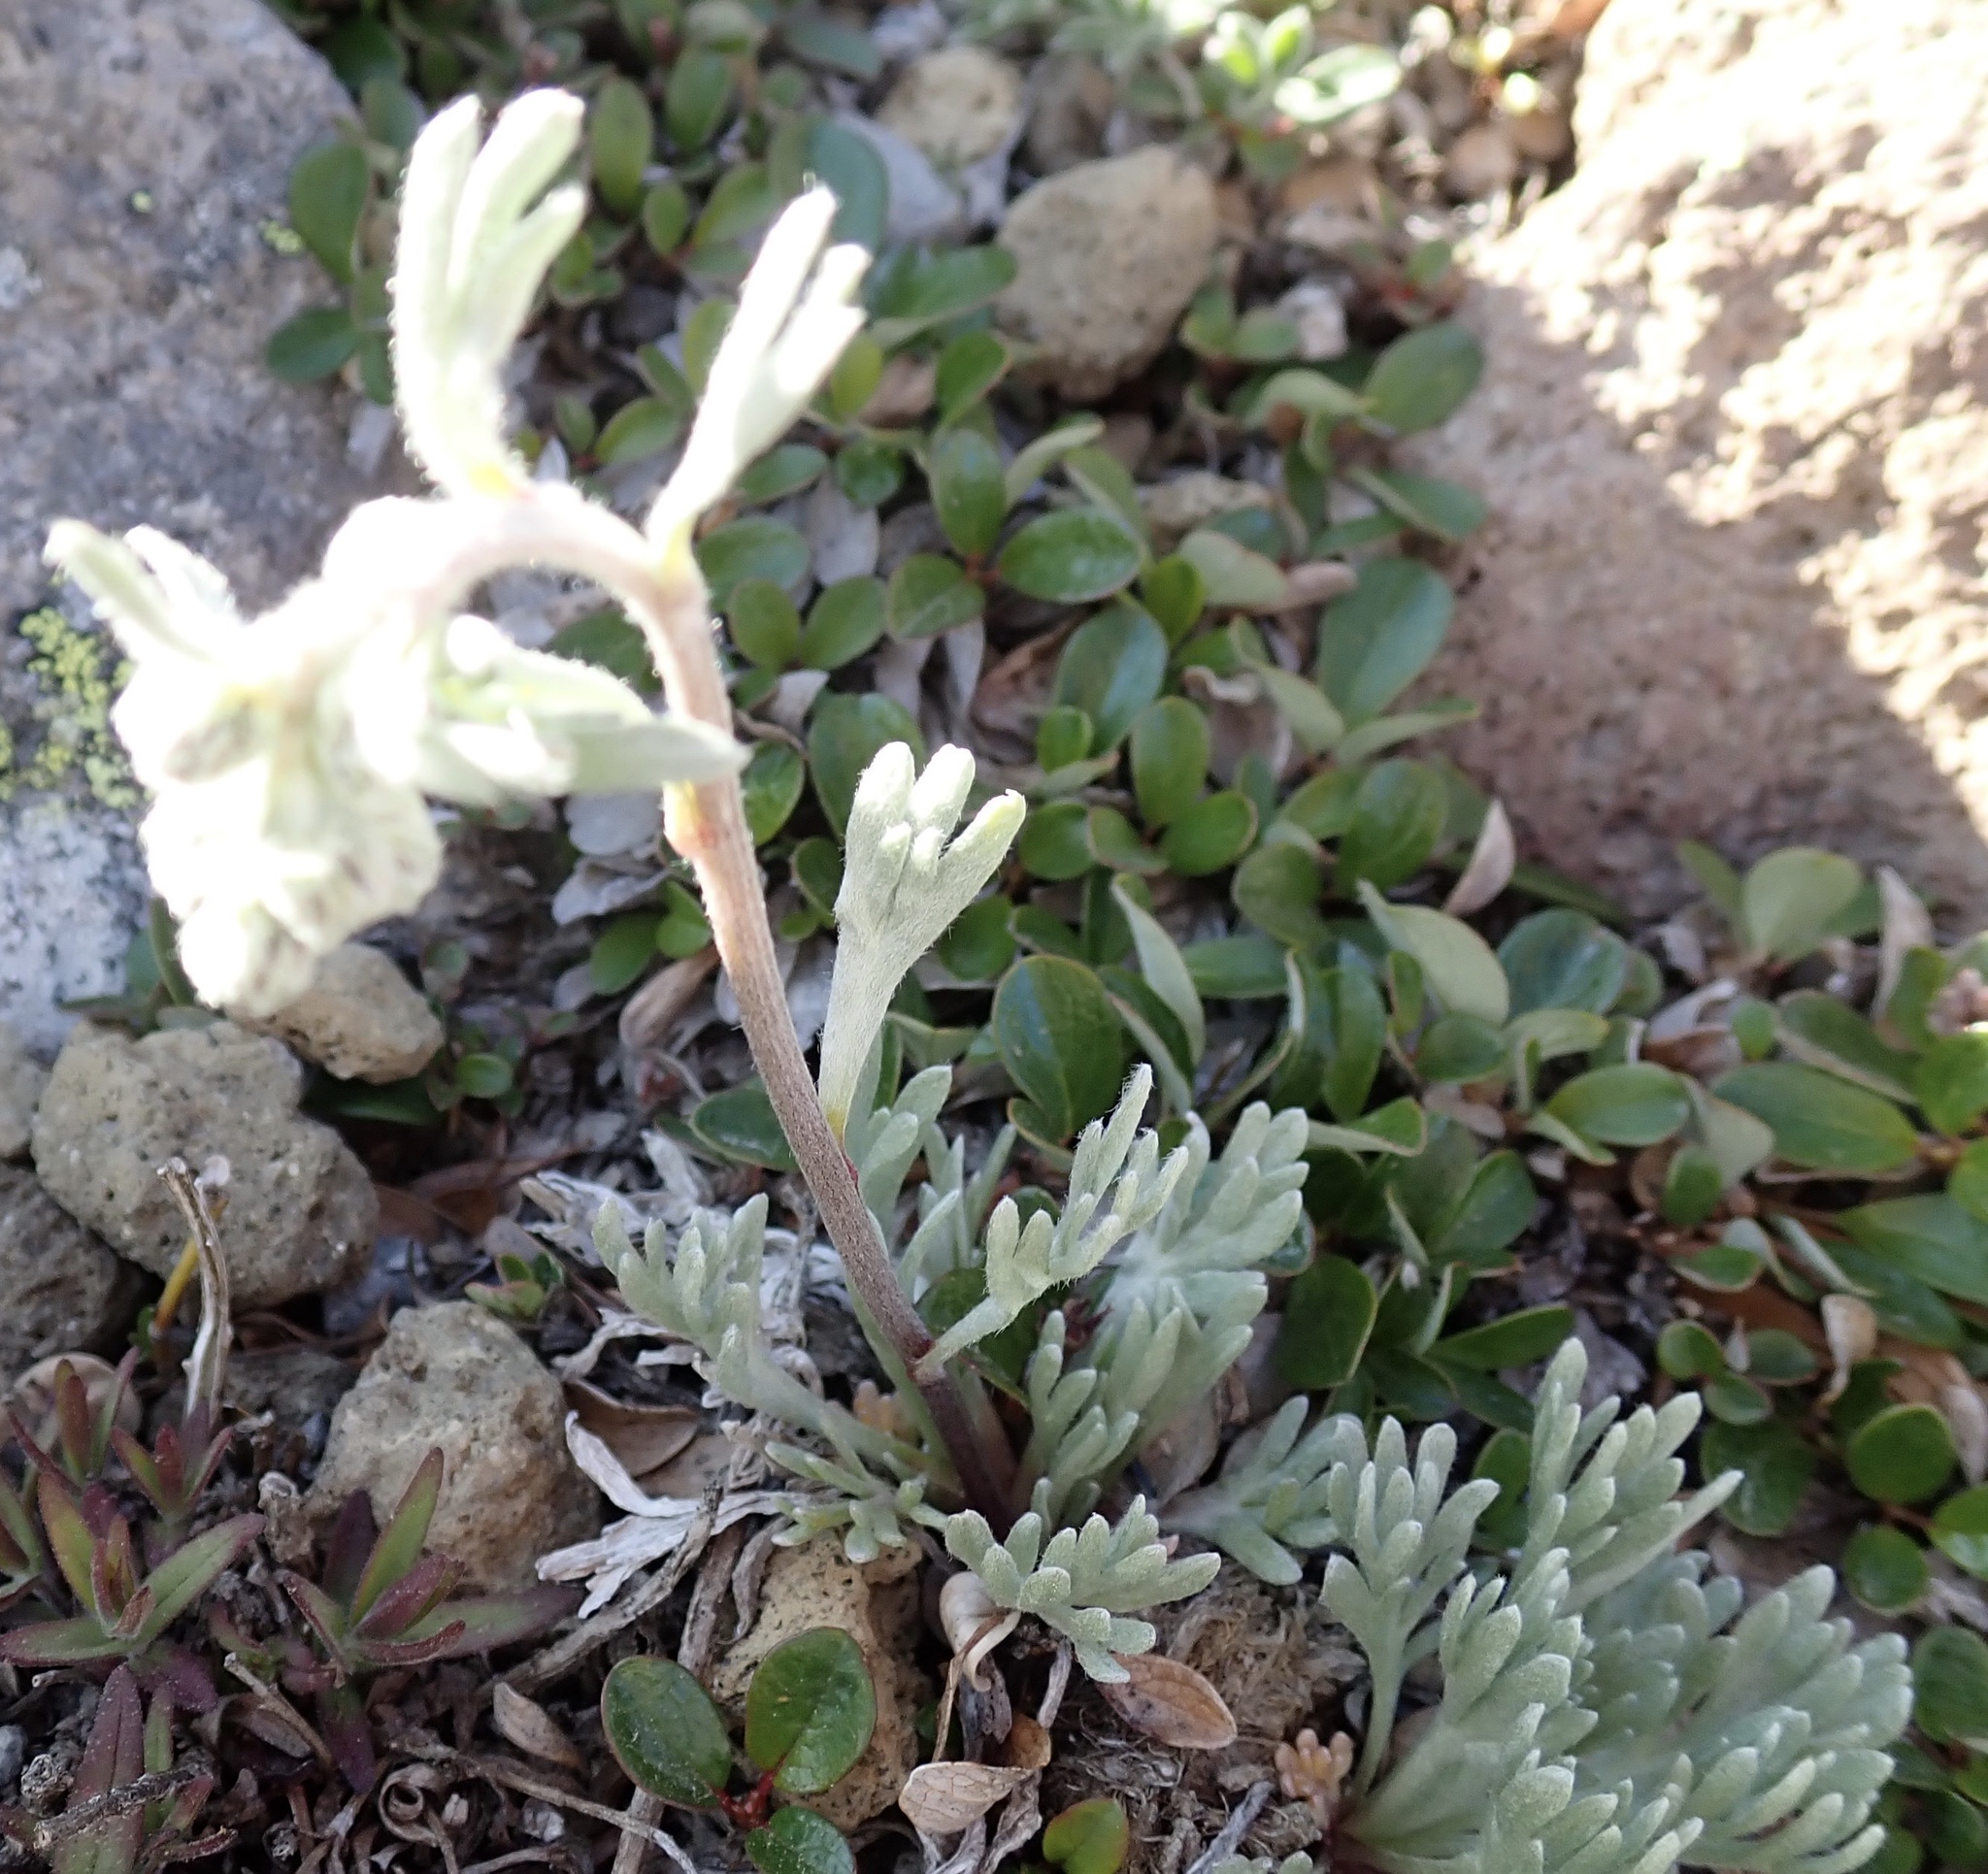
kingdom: Plantae
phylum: Tracheophyta
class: Magnoliopsida
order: Asterales
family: Asteraceae
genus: Artemisia
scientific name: Artemisia furcata
